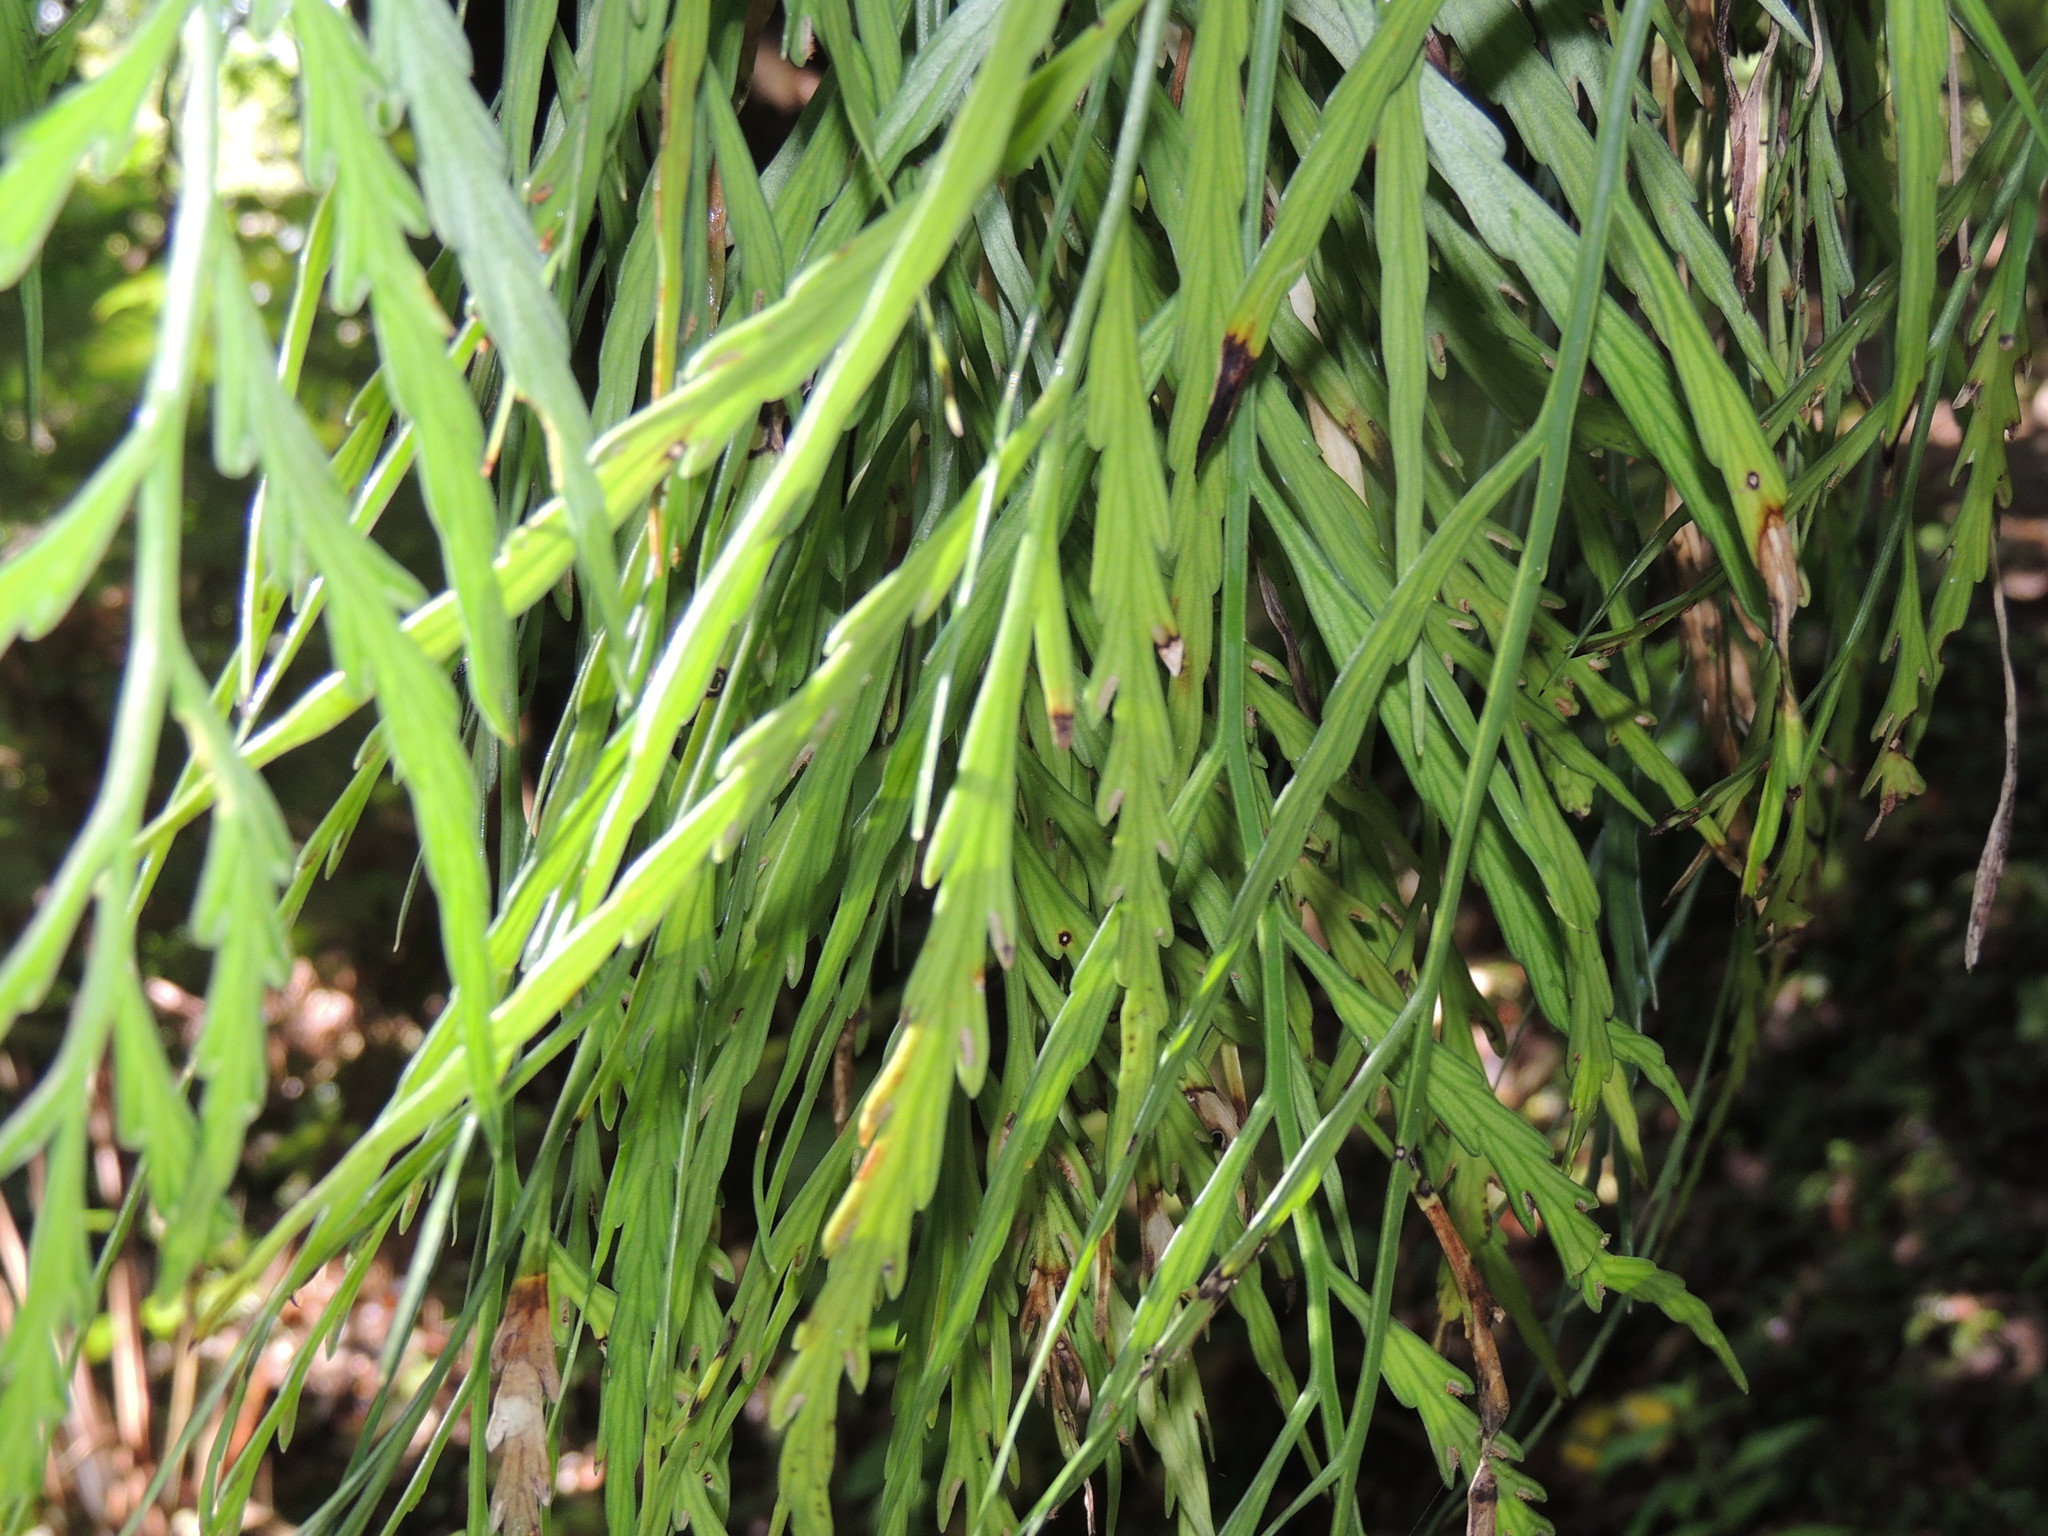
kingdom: Plantae
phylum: Tracheophyta
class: Polypodiopsida
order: Polypodiales
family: Aspleniaceae
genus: Asplenium
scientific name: Asplenium flaccidum
